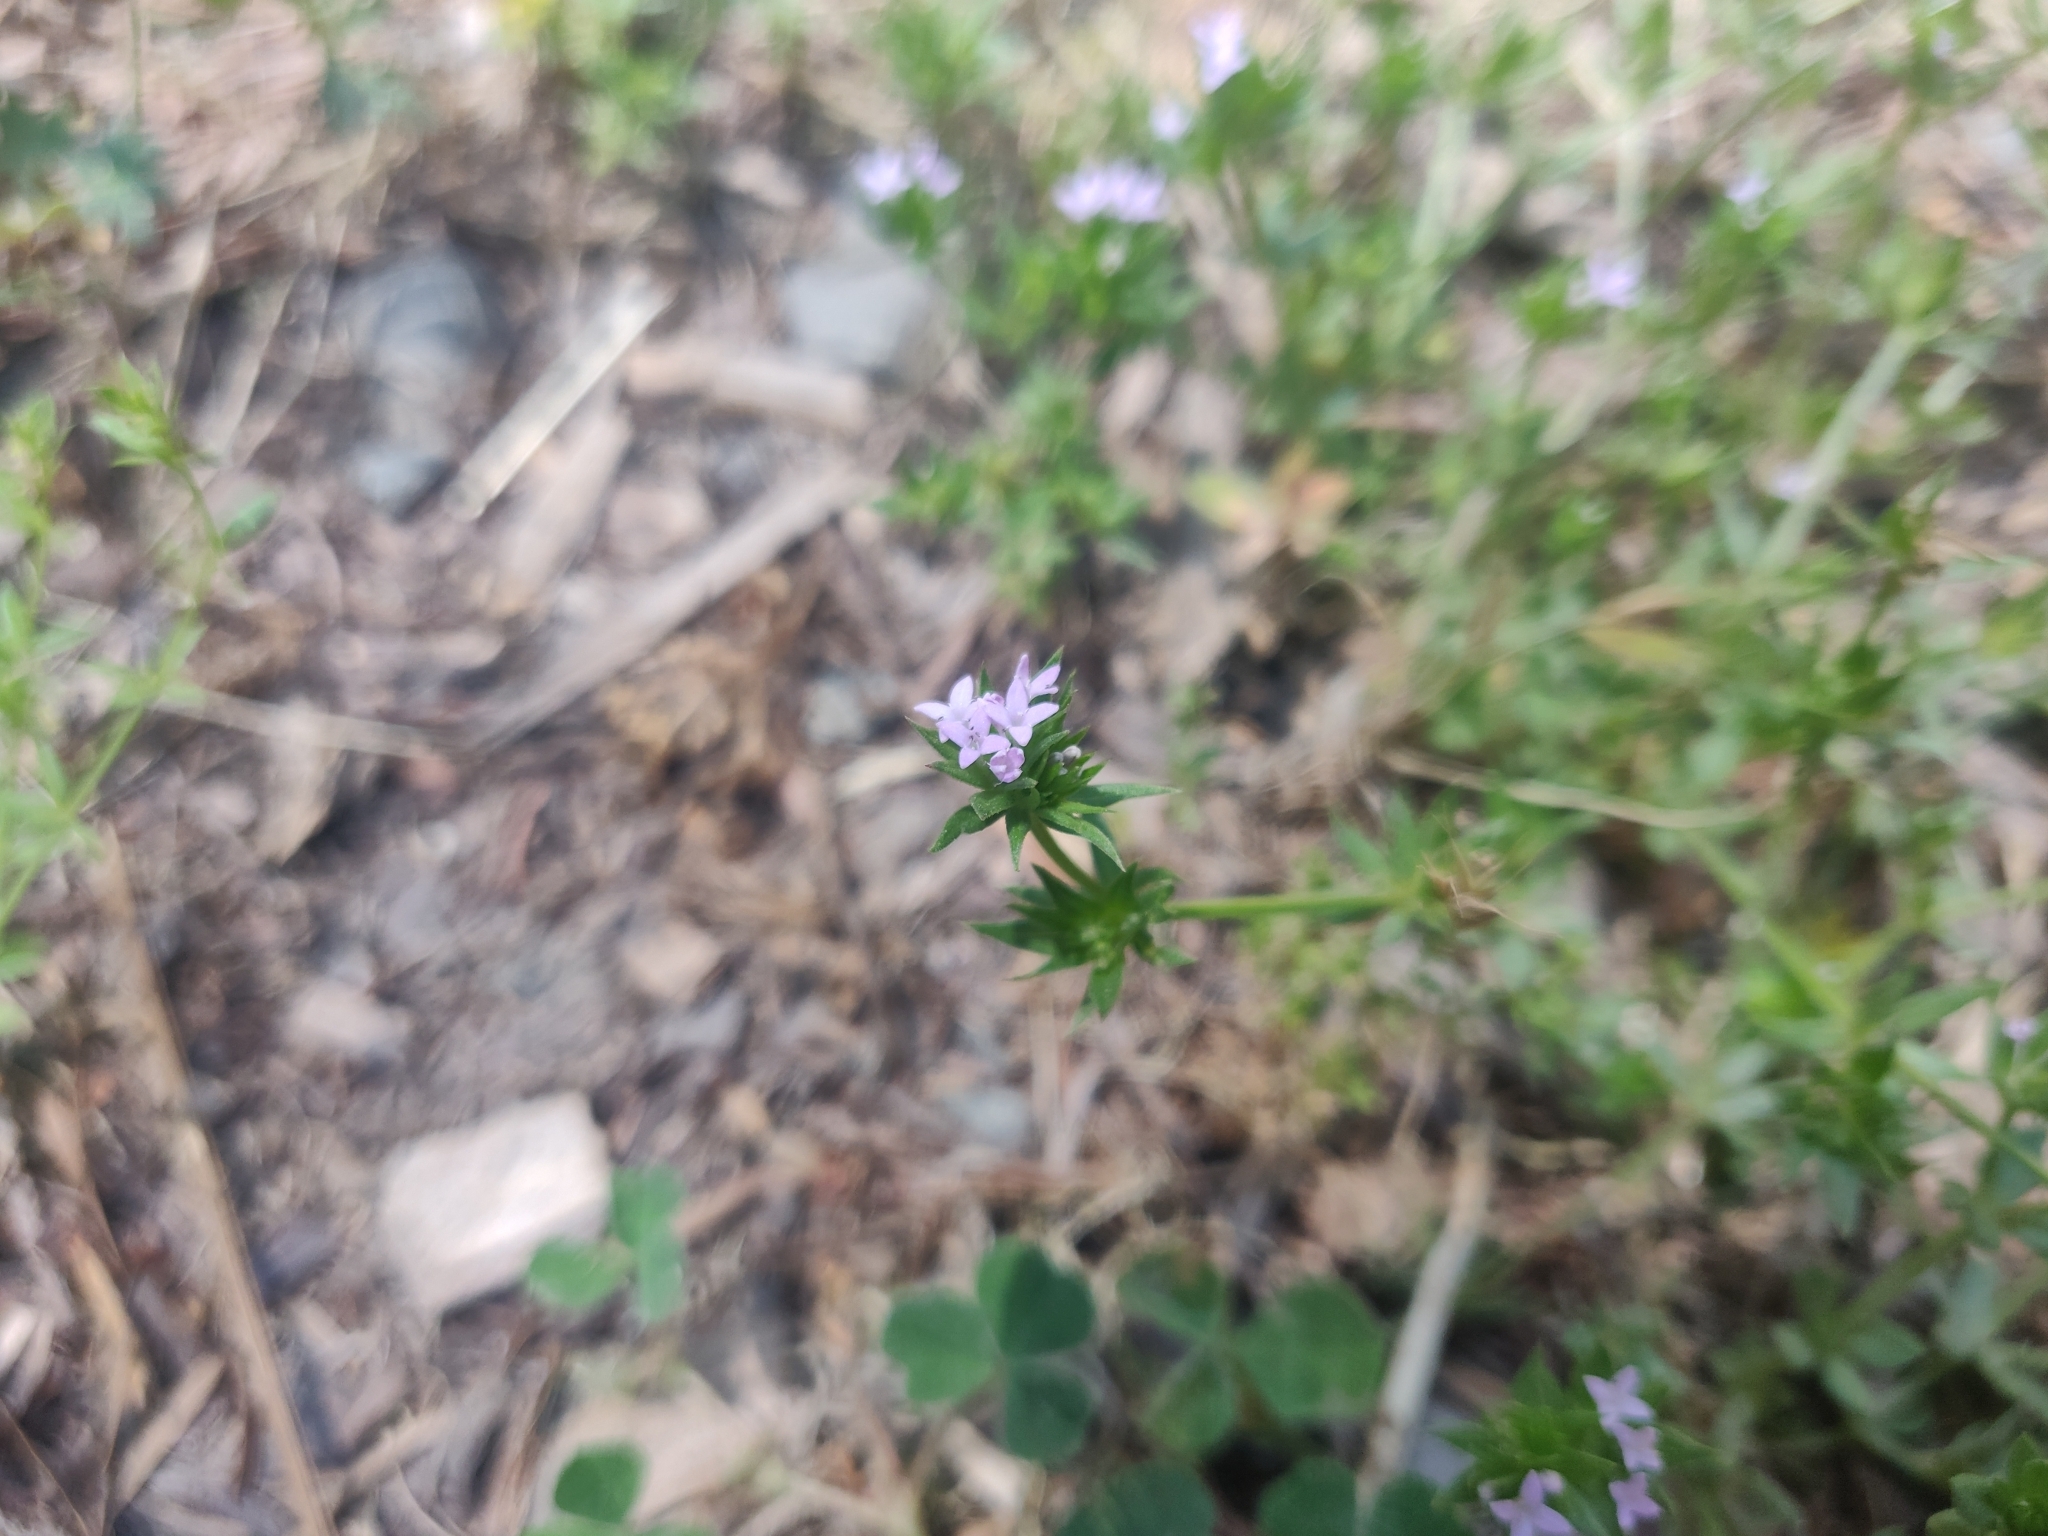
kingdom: Plantae
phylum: Tracheophyta
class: Magnoliopsida
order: Gentianales
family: Rubiaceae
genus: Sherardia
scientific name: Sherardia arvensis
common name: Field madder
